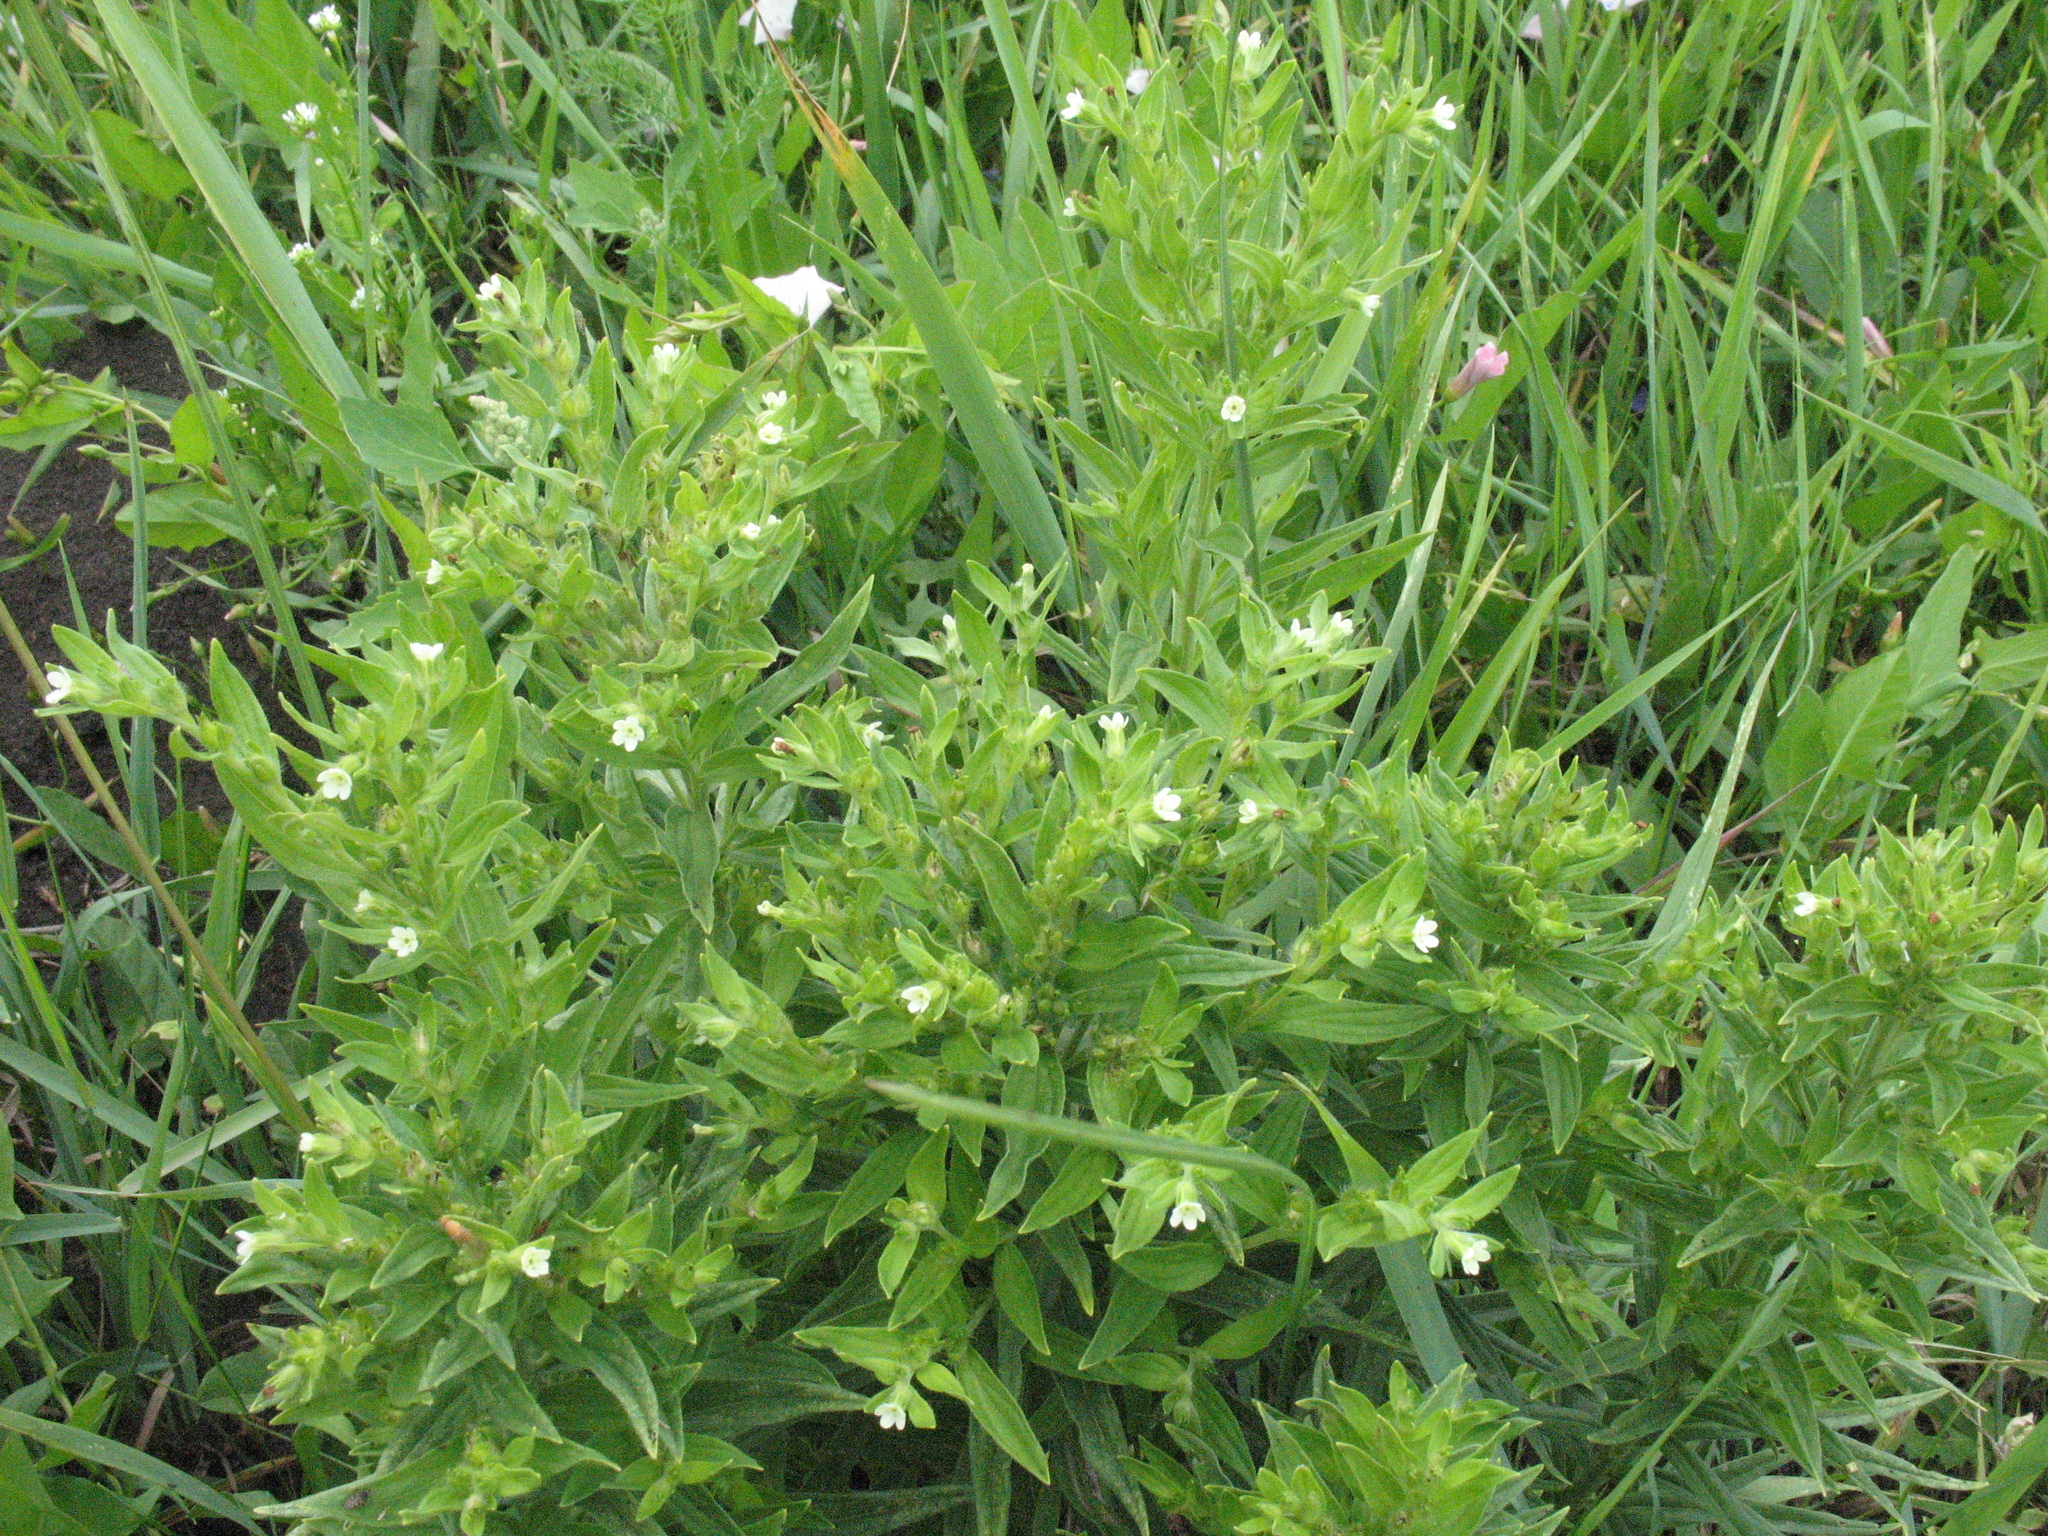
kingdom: Plantae
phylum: Tracheophyta
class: Magnoliopsida
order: Boraginales
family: Boraginaceae
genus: Lithospermum
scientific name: Lithospermum officinale
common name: Common gromwell
